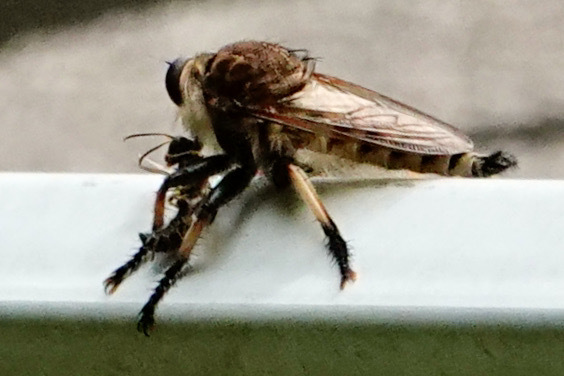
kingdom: Animalia
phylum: Arthropoda
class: Insecta
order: Diptera
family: Asilidae
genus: Promachus
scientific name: Promachus rufipes
